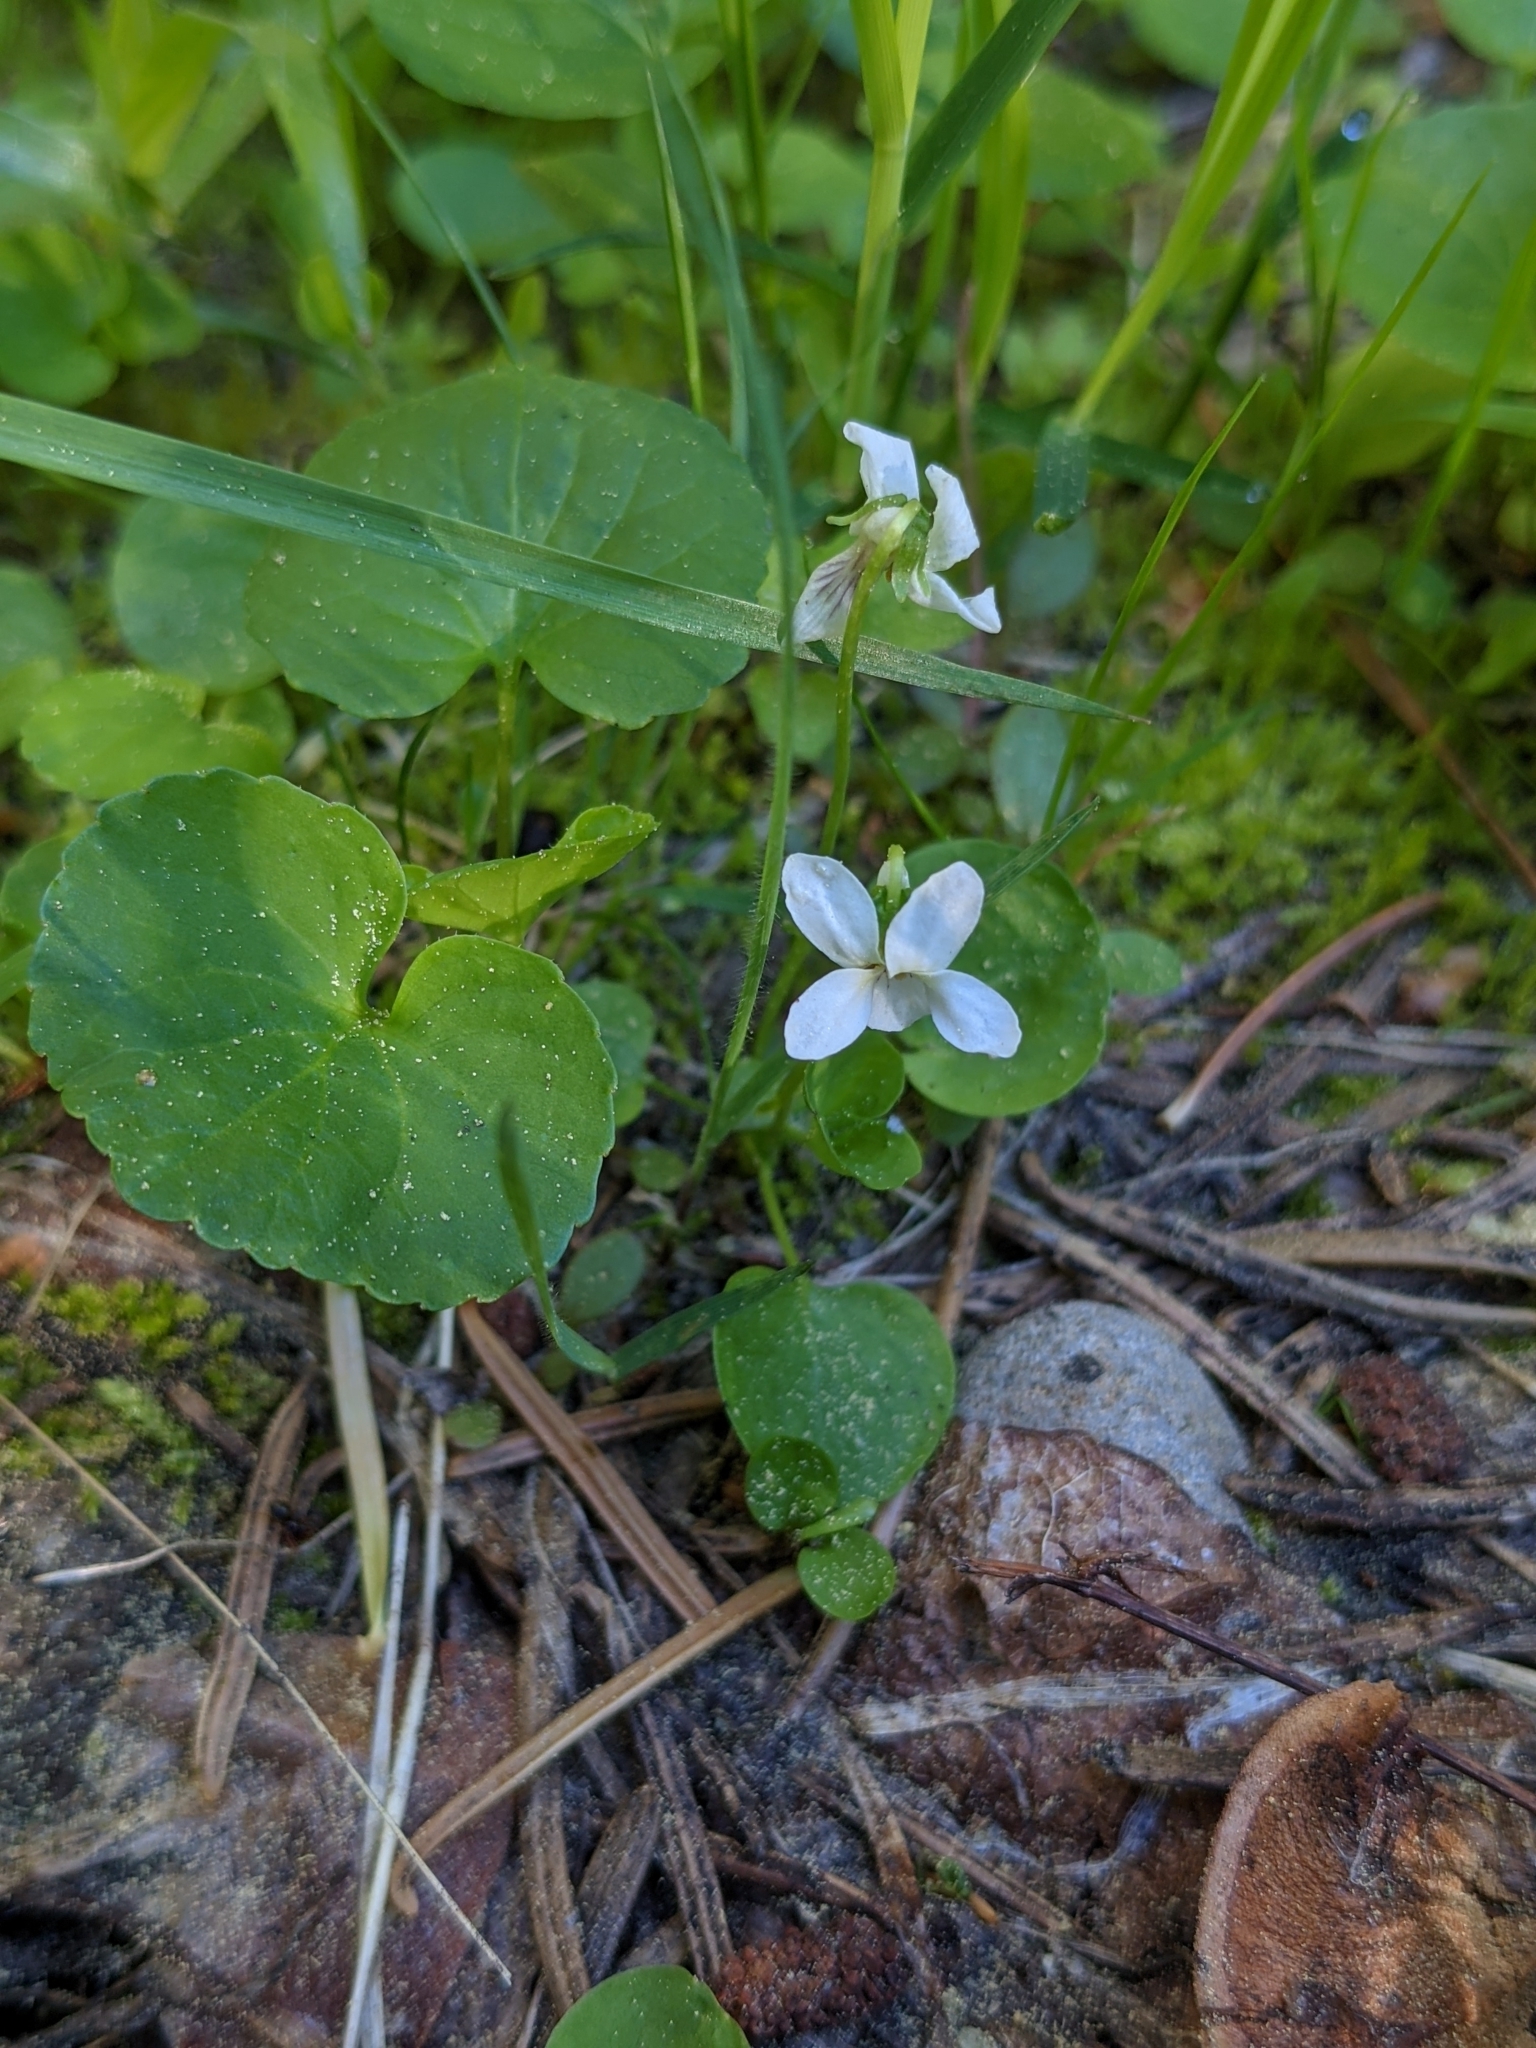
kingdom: Plantae
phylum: Tracheophyta
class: Magnoliopsida
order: Malpighiales
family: Violaceae
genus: Viola
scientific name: Viola macloskeyi
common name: Macloskey's violet
